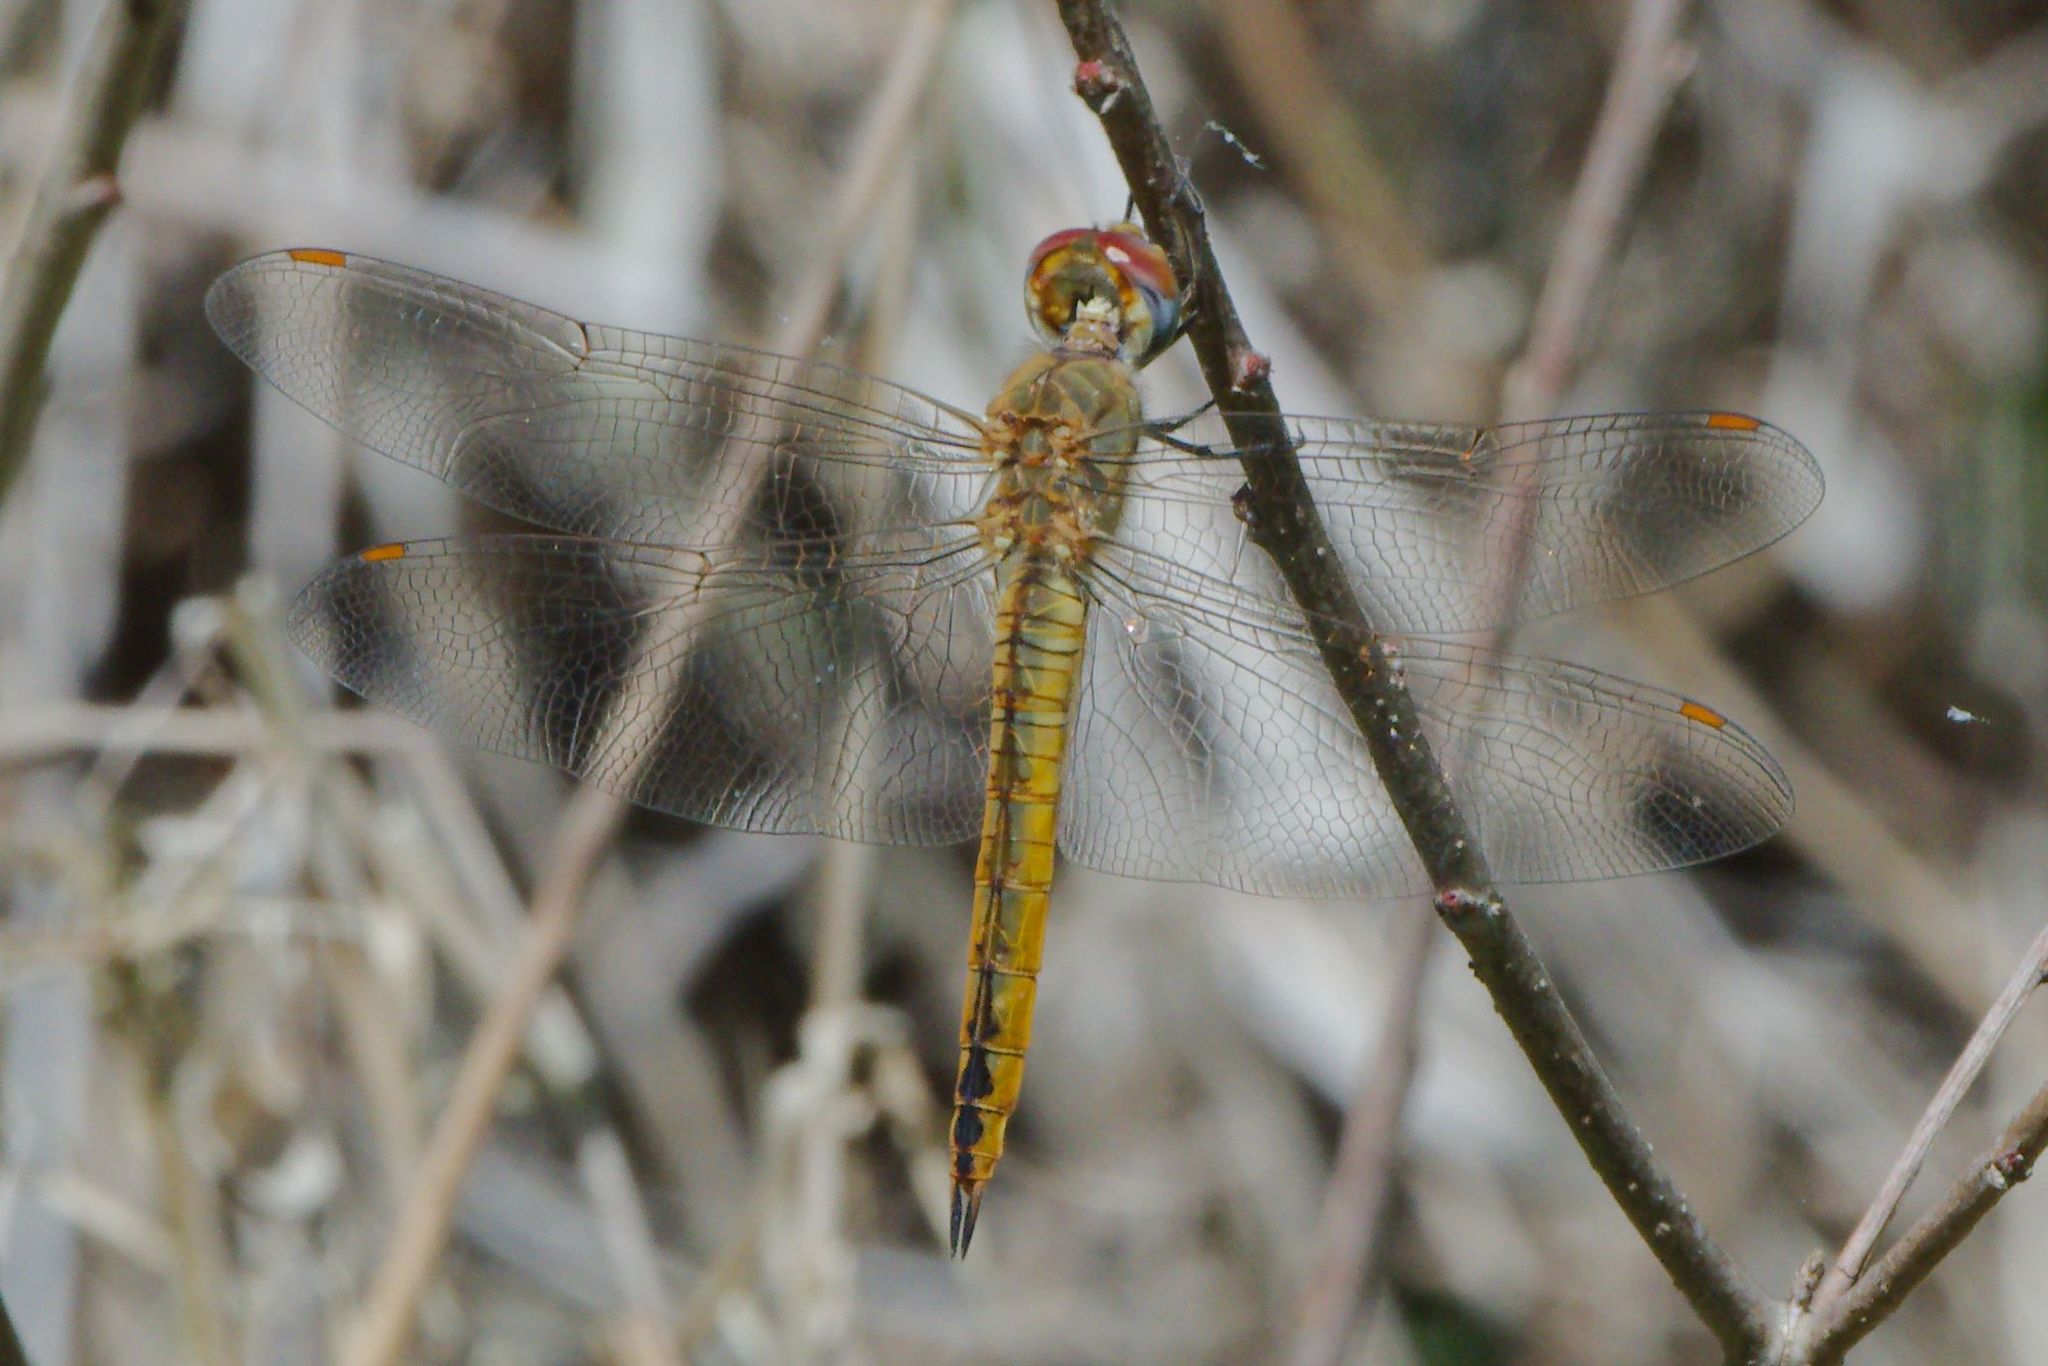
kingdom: Animalia
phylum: Arthropoda
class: Insecta
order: Odonata
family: Libellulidae
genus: Pantala
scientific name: Pantala flavescens
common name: Wandering glider
